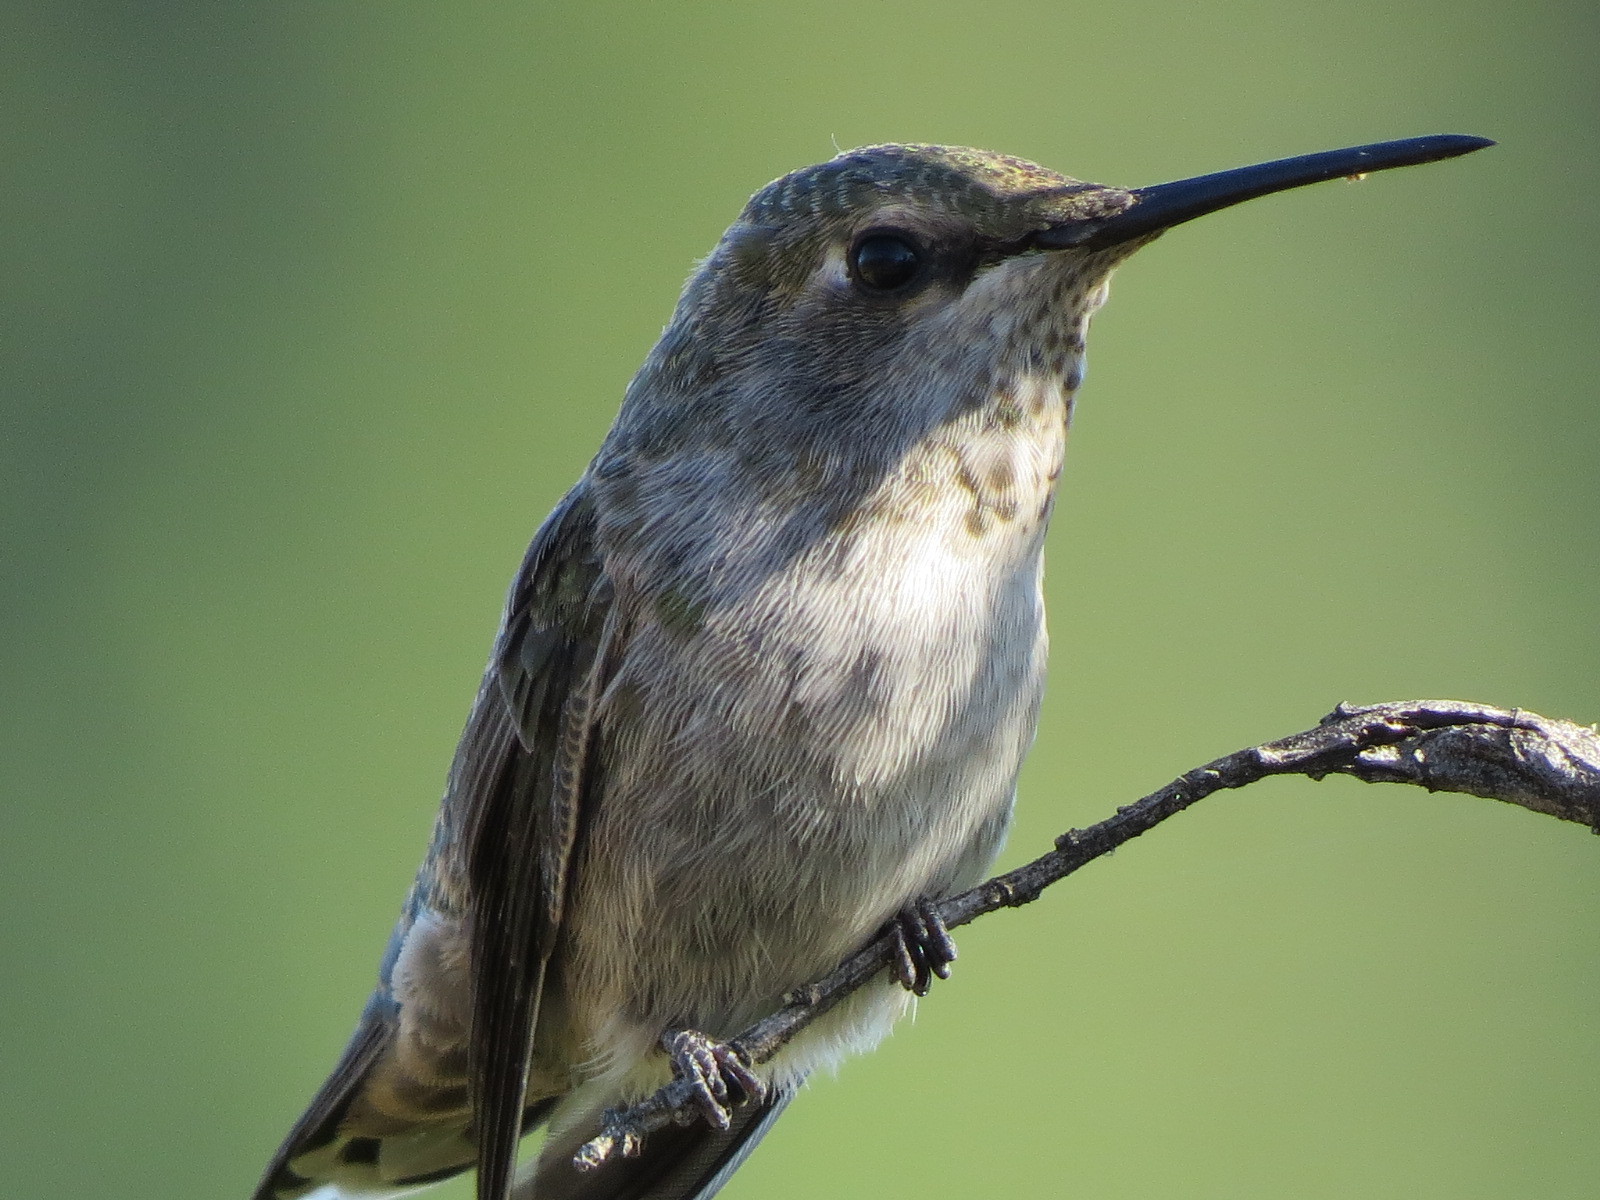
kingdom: Animalia
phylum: Chordata
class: Aves
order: Apodiformes
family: Trochilidae
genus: Calypte
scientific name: Calypte anna
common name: Anna's hummingbird
